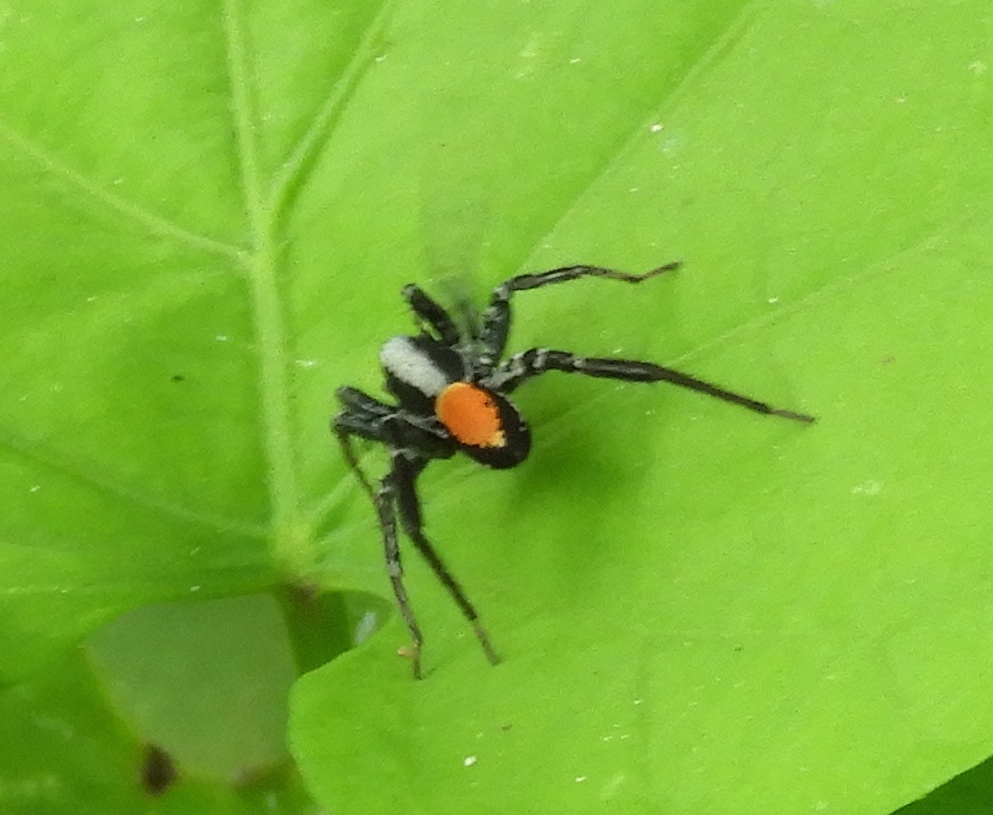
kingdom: Animalia
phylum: Arthropoda
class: Arachnida
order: Araneae
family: Corinnidae
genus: Castianeira
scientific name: Castianeira
